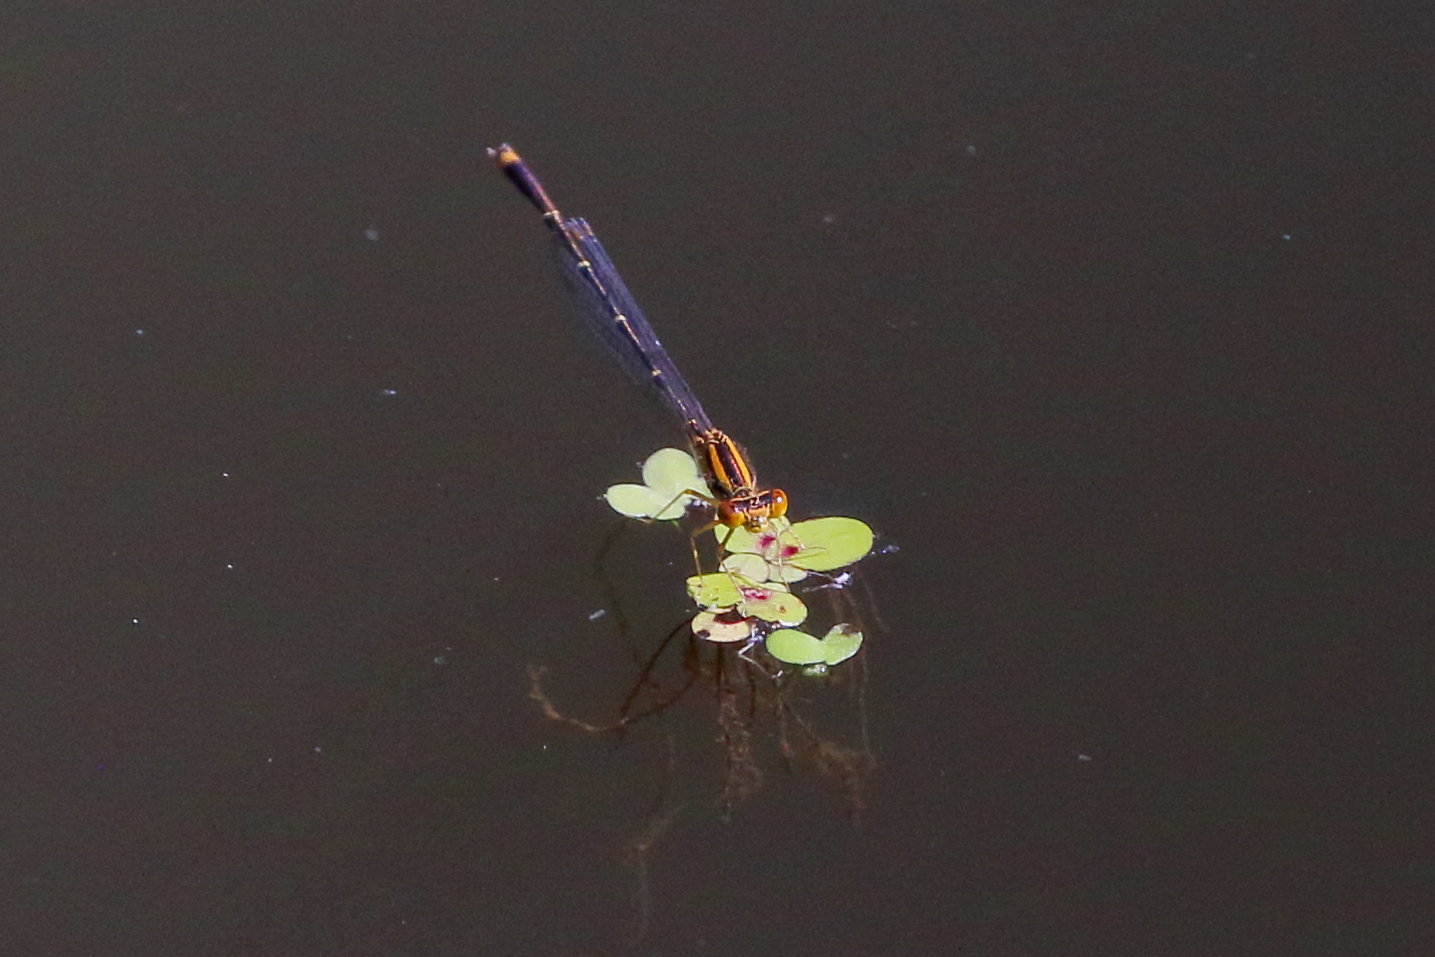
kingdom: Animalia
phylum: Arthropoda
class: Insecta
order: Odonata
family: Coenagrionidae
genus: Enallagma
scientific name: Enallagma signatum
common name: Orange bluet
